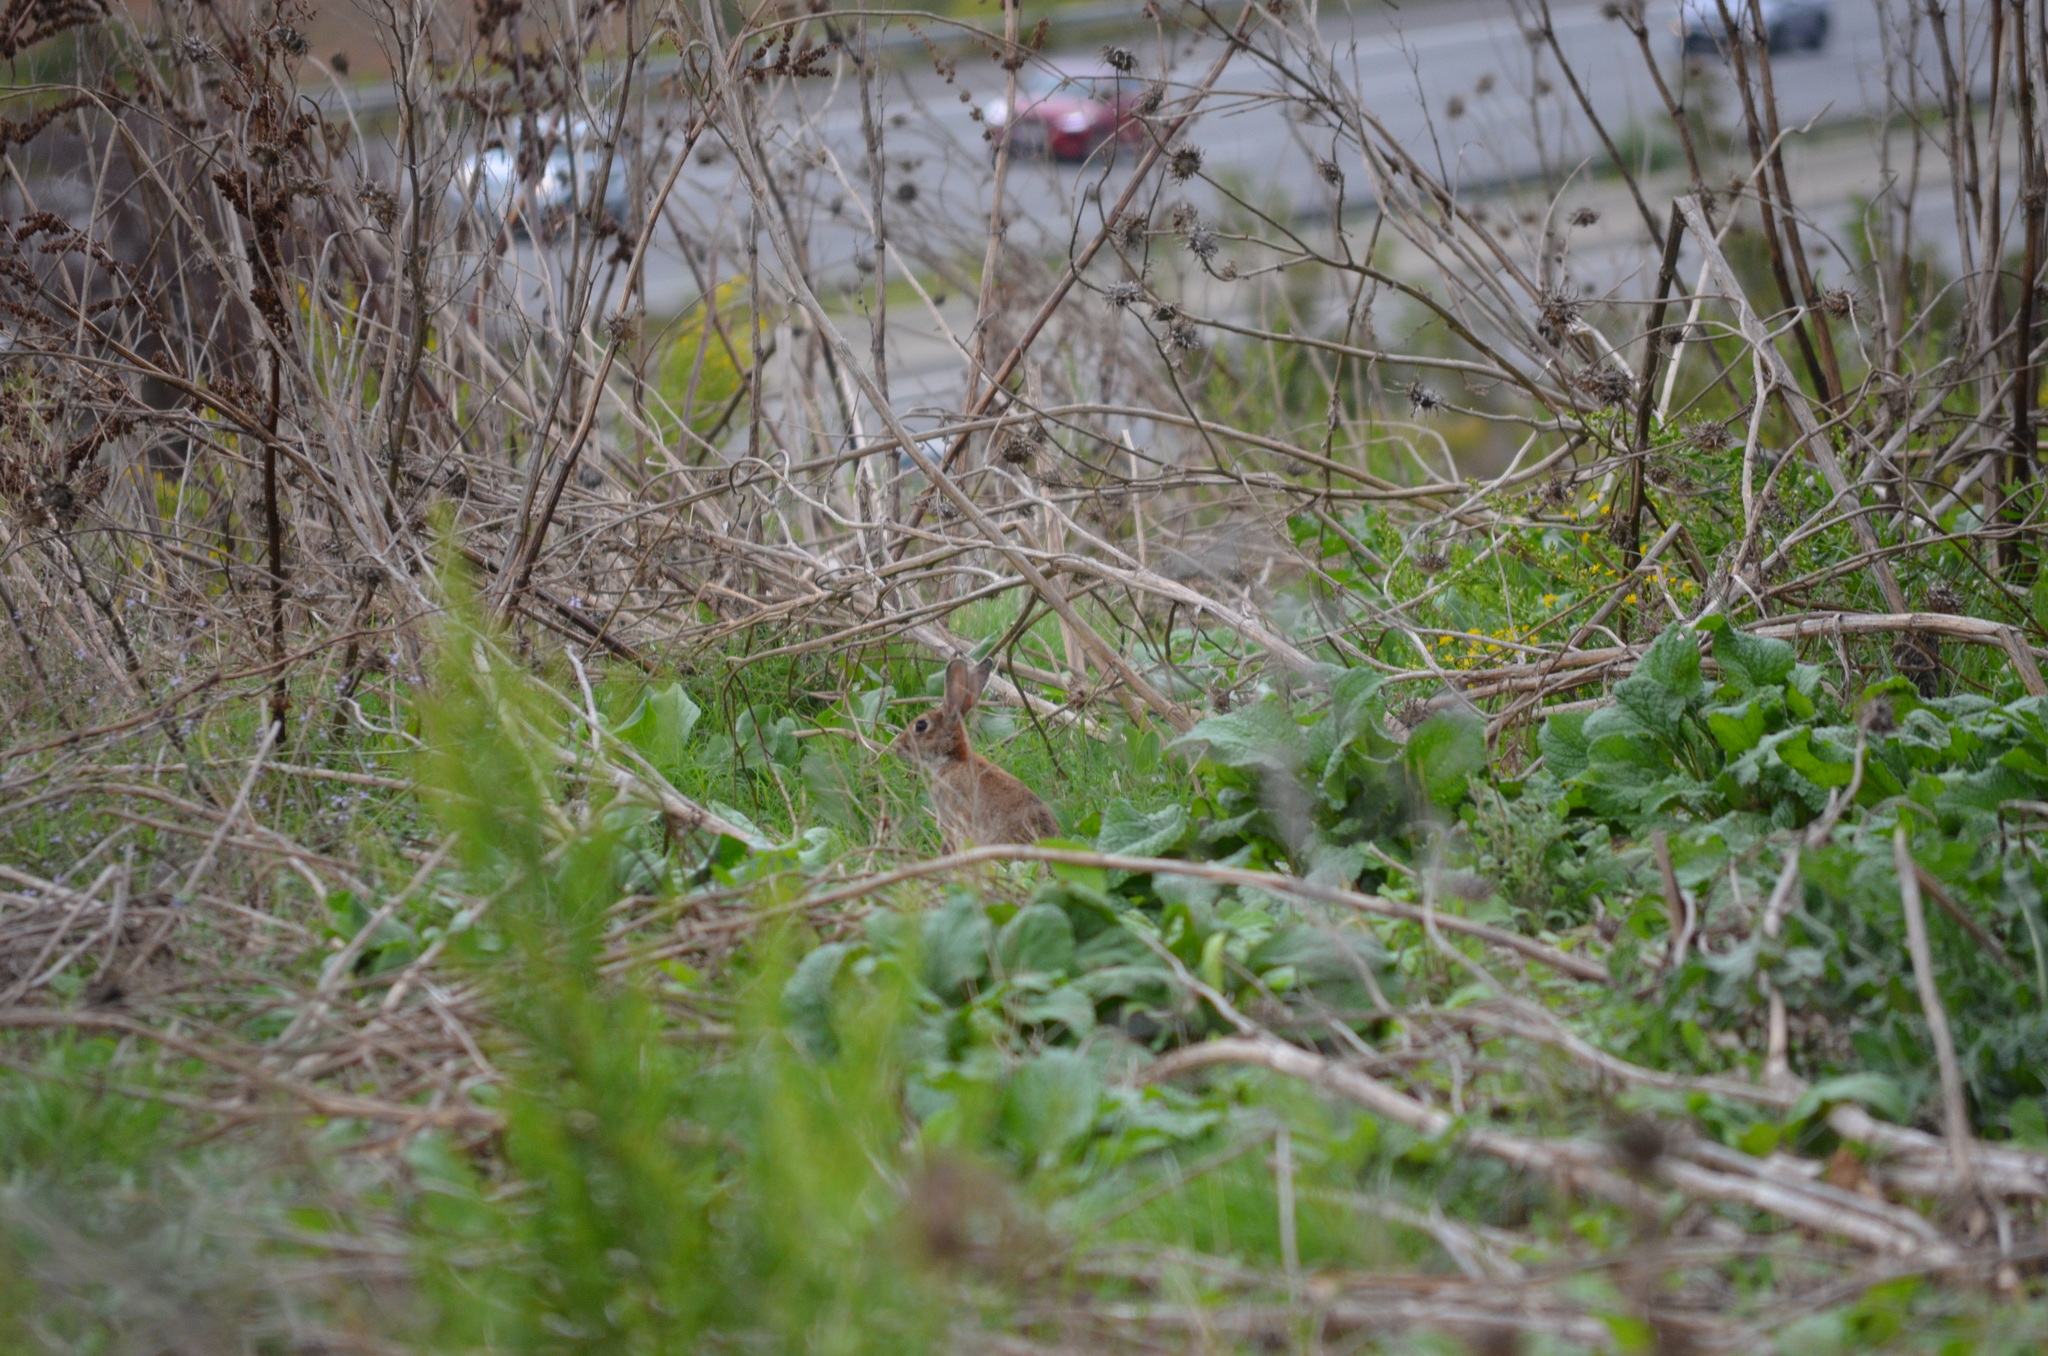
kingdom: Animalia
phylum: Chordata
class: Mammalia
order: Lagomorpha
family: Leporidae
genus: Oryctolagus
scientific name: Oryctolagus cuniculus
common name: European rabbit
